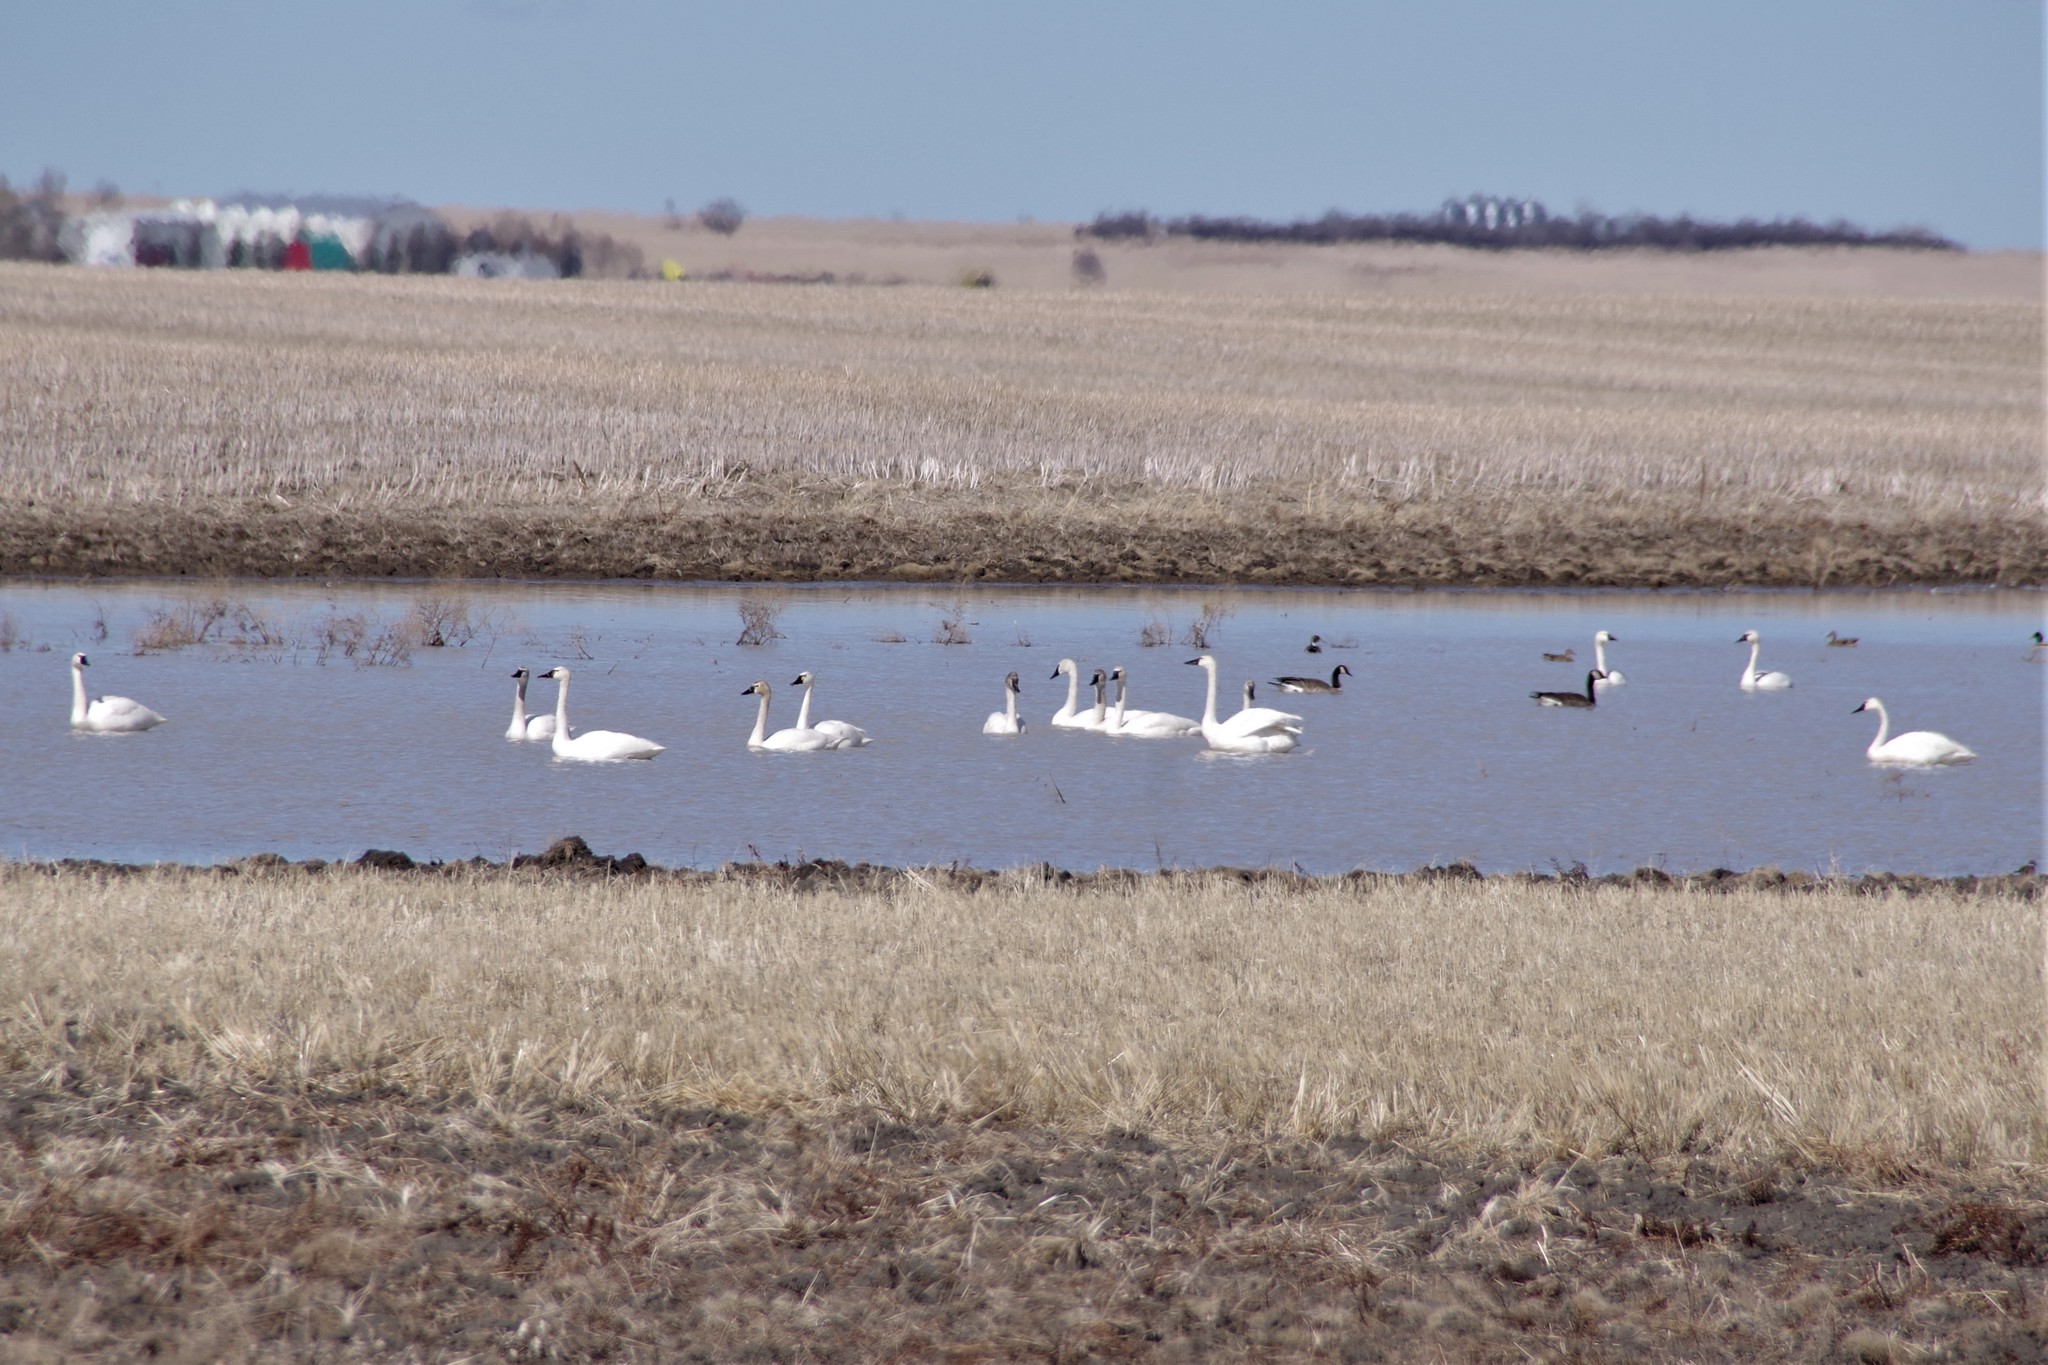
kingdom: Animalia
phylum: Chordata
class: Aves
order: Anseriformes
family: Anatidae
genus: Cygnus
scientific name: Cygnus columbianus
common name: Tundra swan
